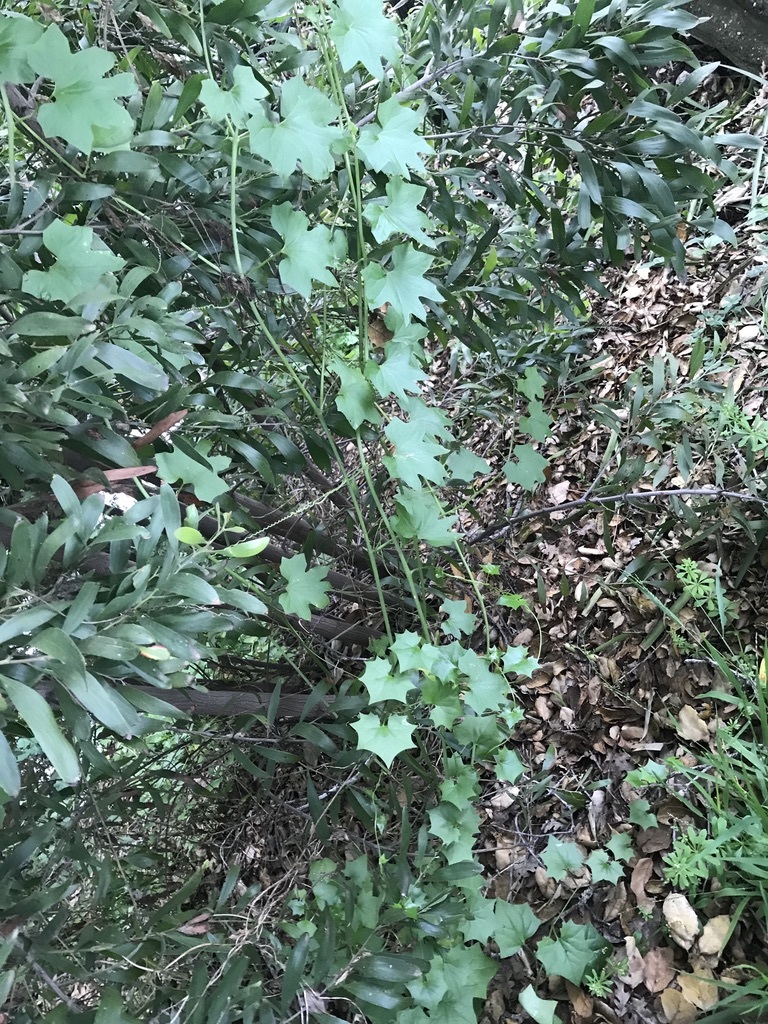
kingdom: Plantae
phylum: Tracheophyta
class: Magnoliopsida
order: Cucurbitales
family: Cucurbitaceae
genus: Marah
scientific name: Marah fabacea
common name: California manroot
